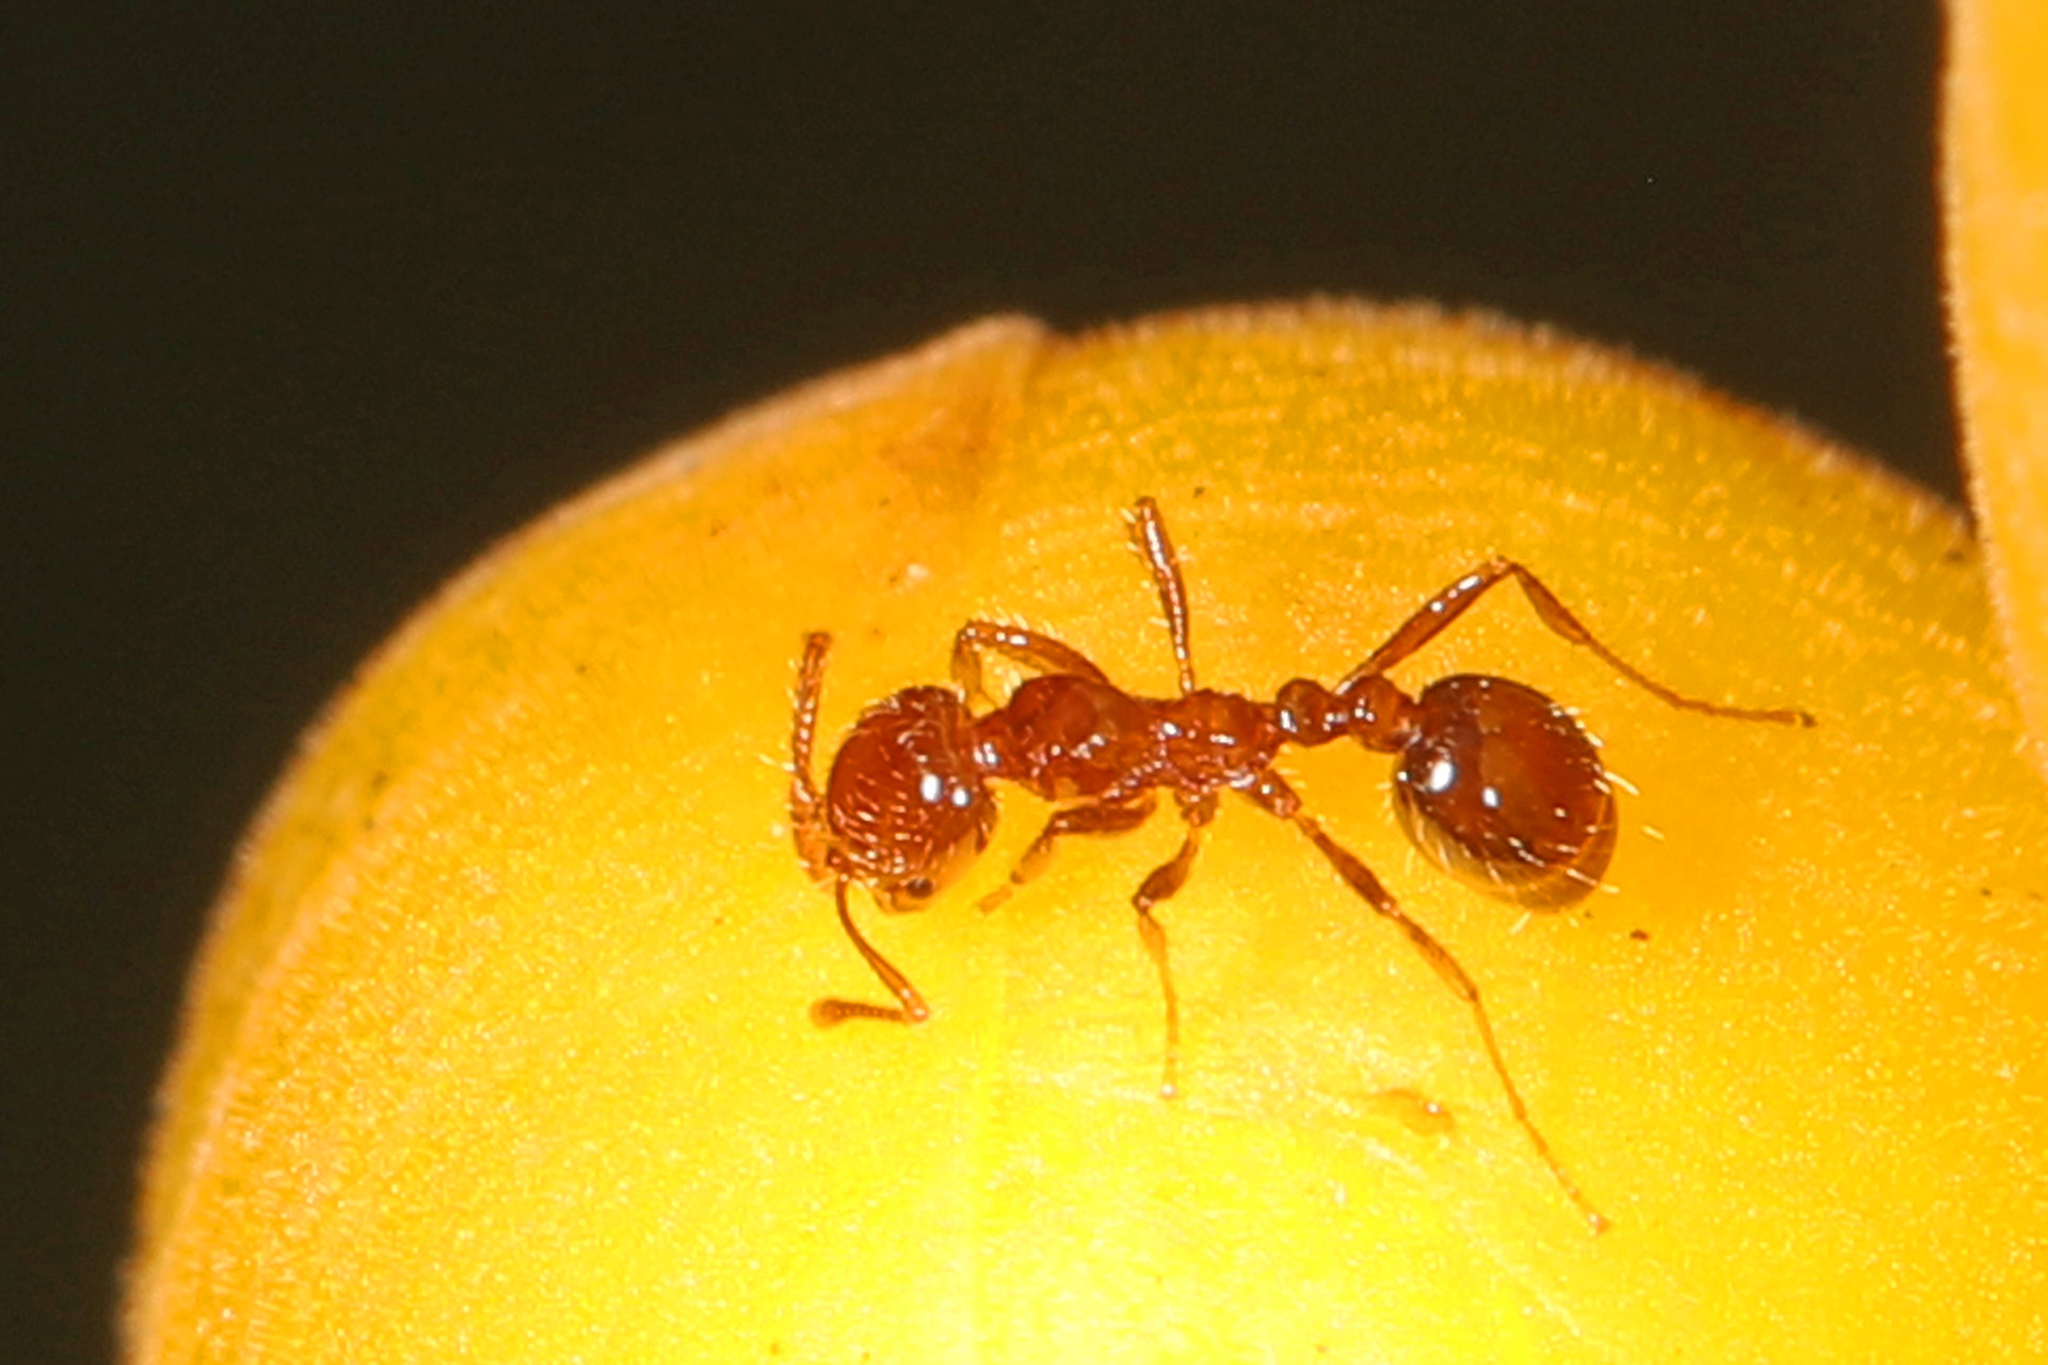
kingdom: Animalia
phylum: Arthropoda
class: Insecta
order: Hymenoptera
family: Formicidae
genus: Solenopsis
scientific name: Solenopsis invicta
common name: Red imported fire ant
